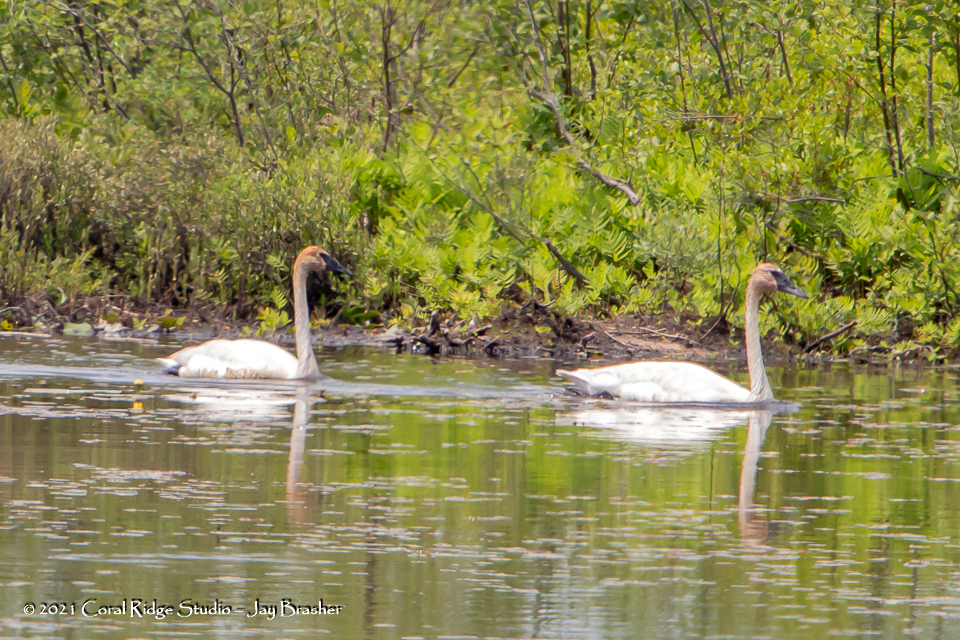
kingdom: Animalia
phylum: Chordata
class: Aves
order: Anseriformes
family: Anatidae
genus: Cygnus
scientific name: Cygnus buccinator
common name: Trumpeter swan
